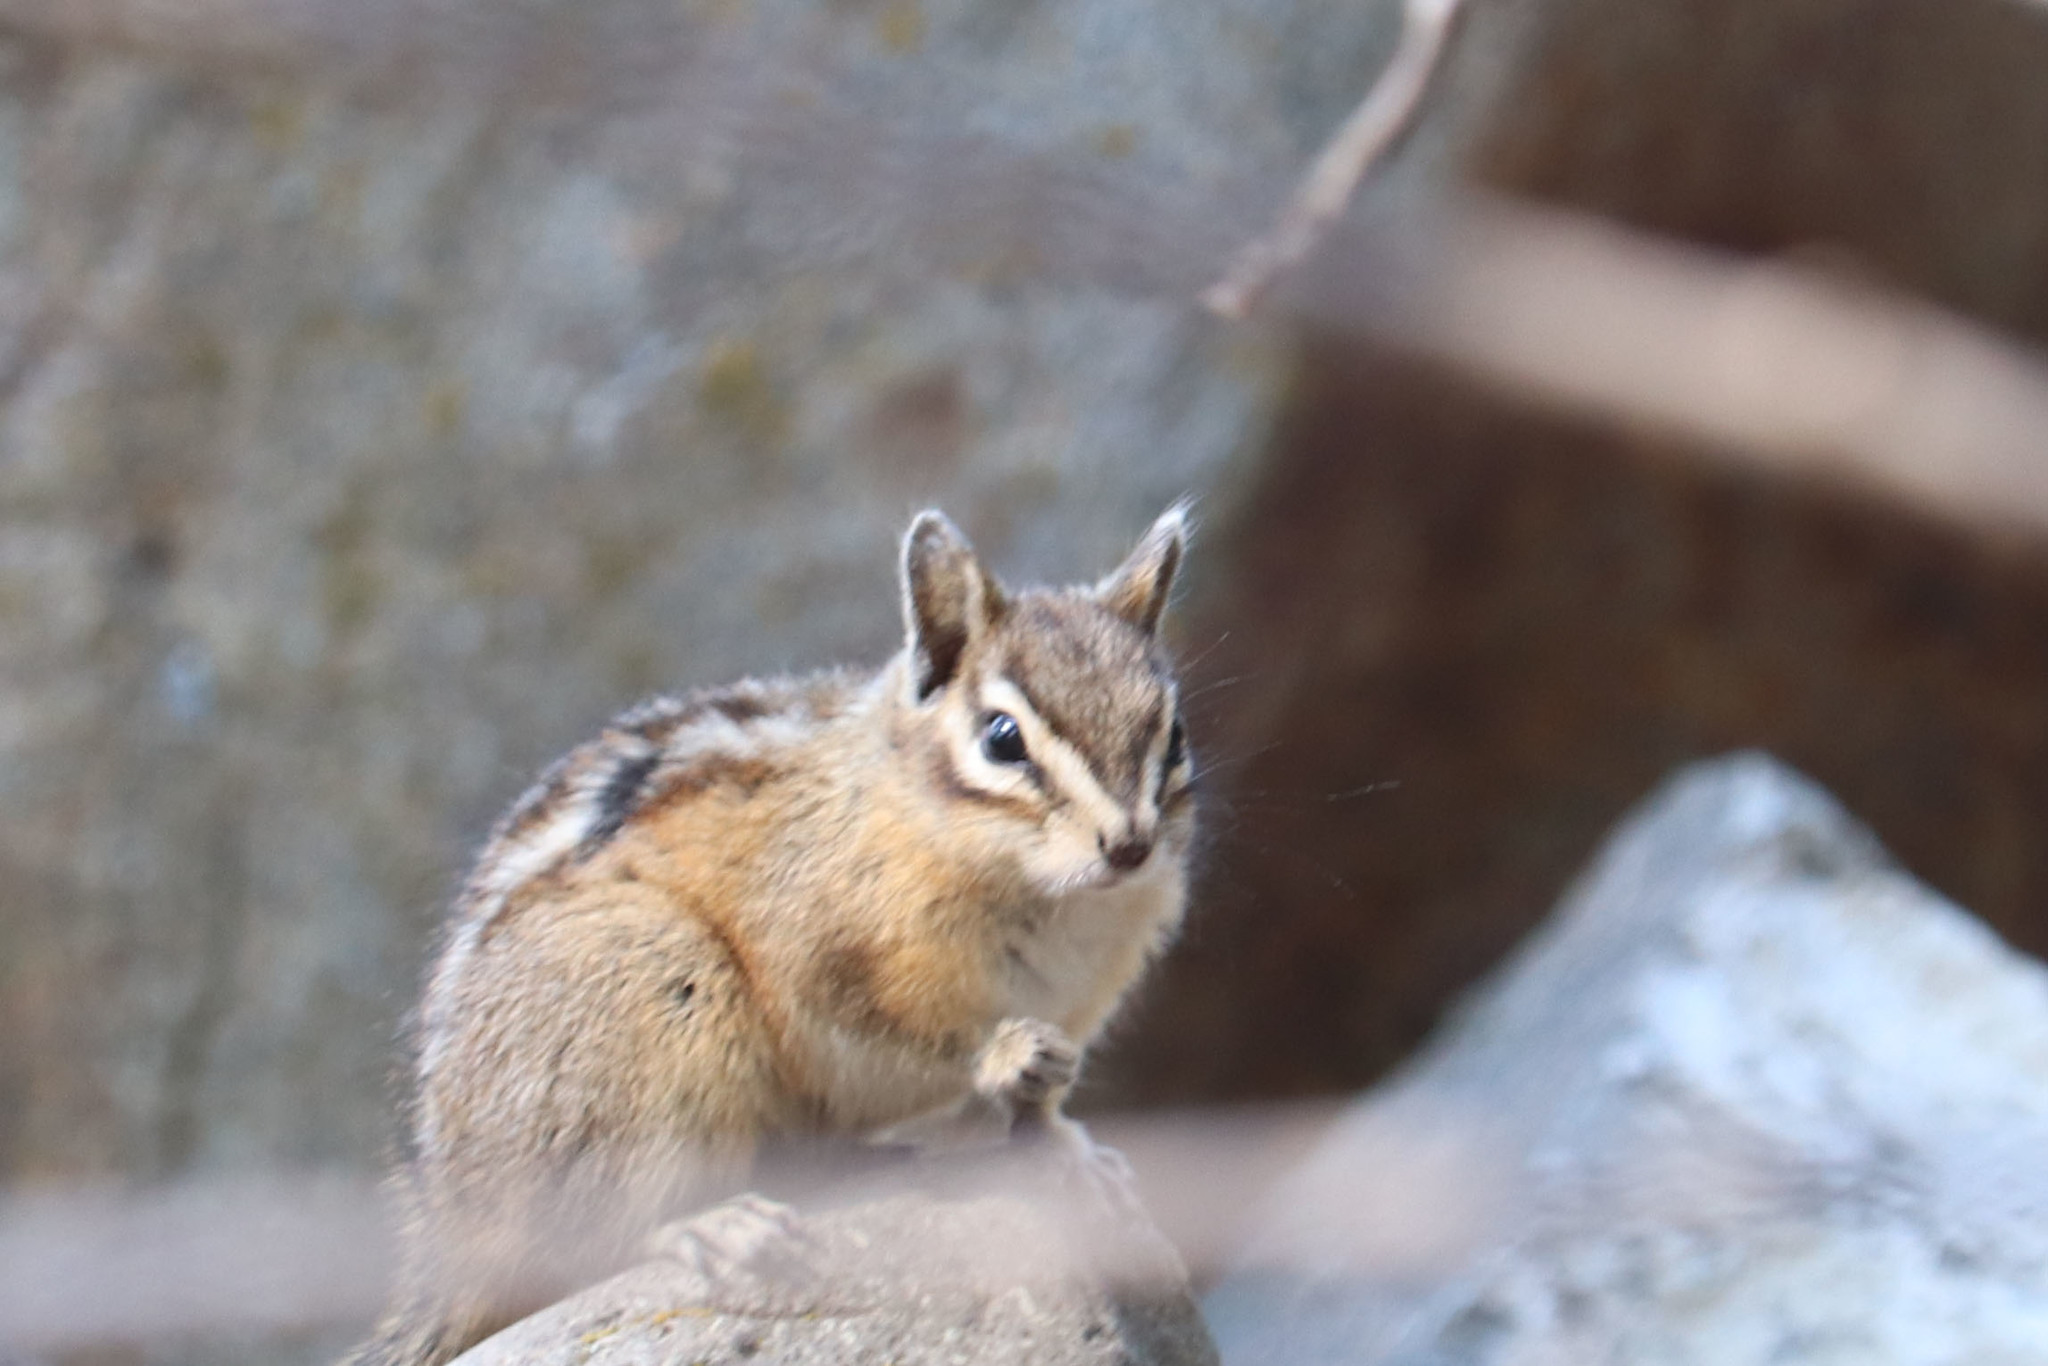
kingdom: Animalia
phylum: Chordata
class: Mammalia
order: Rodentia
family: Sciuridae
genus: Tamias
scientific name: Tamias amoenus
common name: Yellow-pine chipmunk
